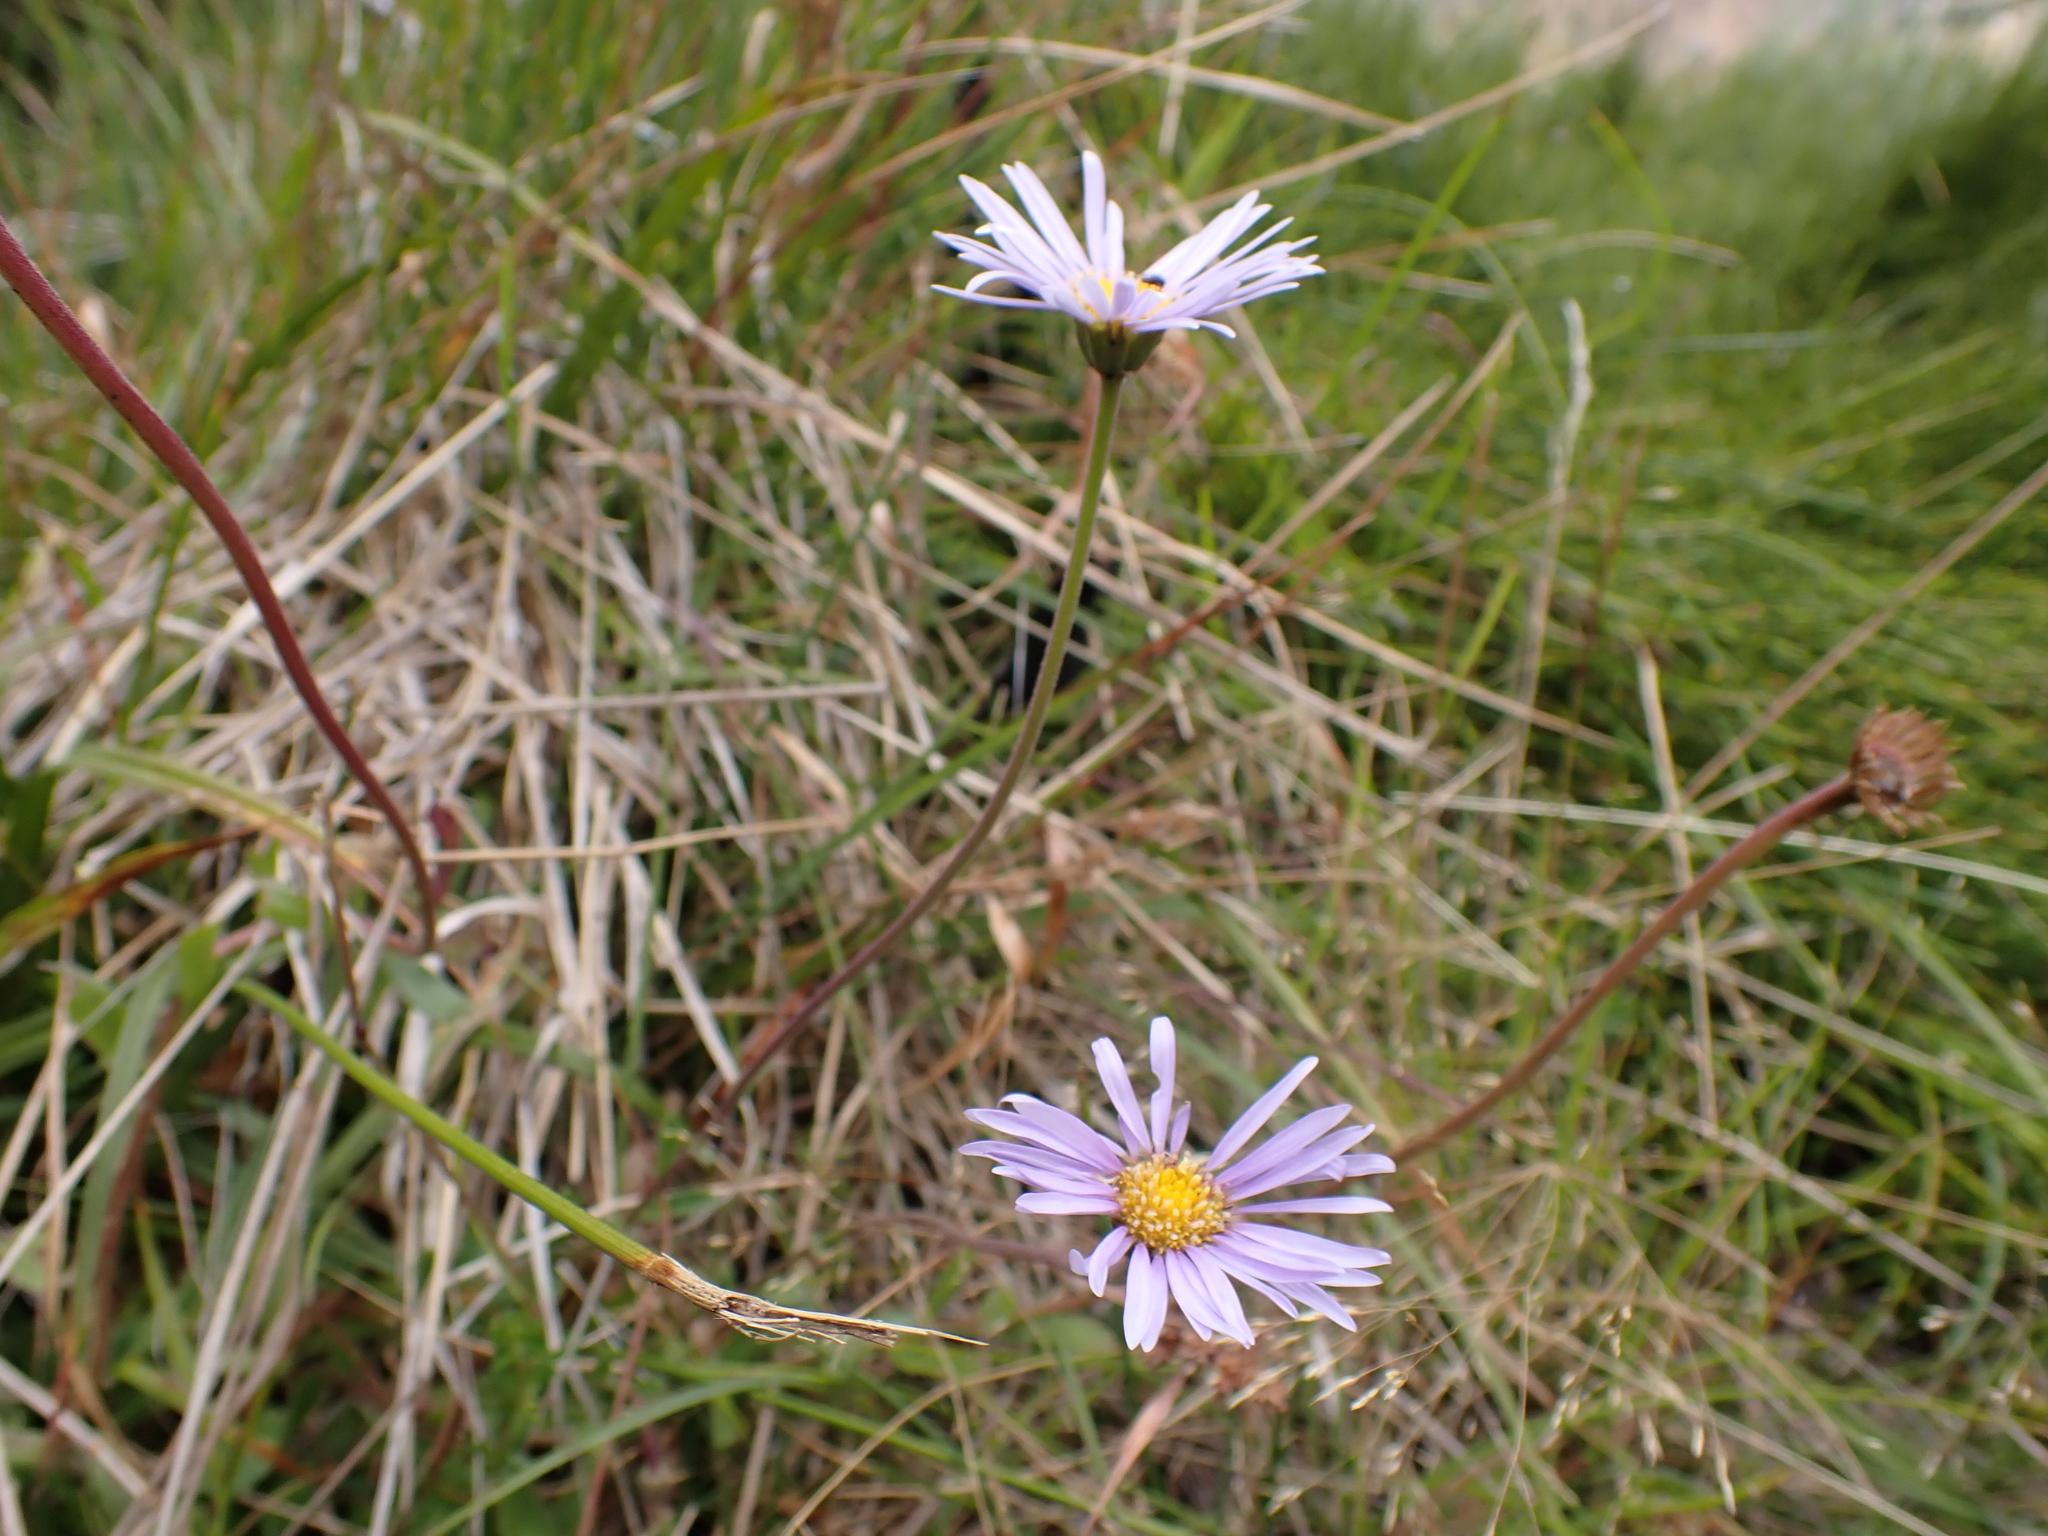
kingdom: Plantae
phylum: Tracheophyta
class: Magnoliopsida
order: Asterales
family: Asteraceae
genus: Brachyscome
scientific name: Brachyscome spathulata
